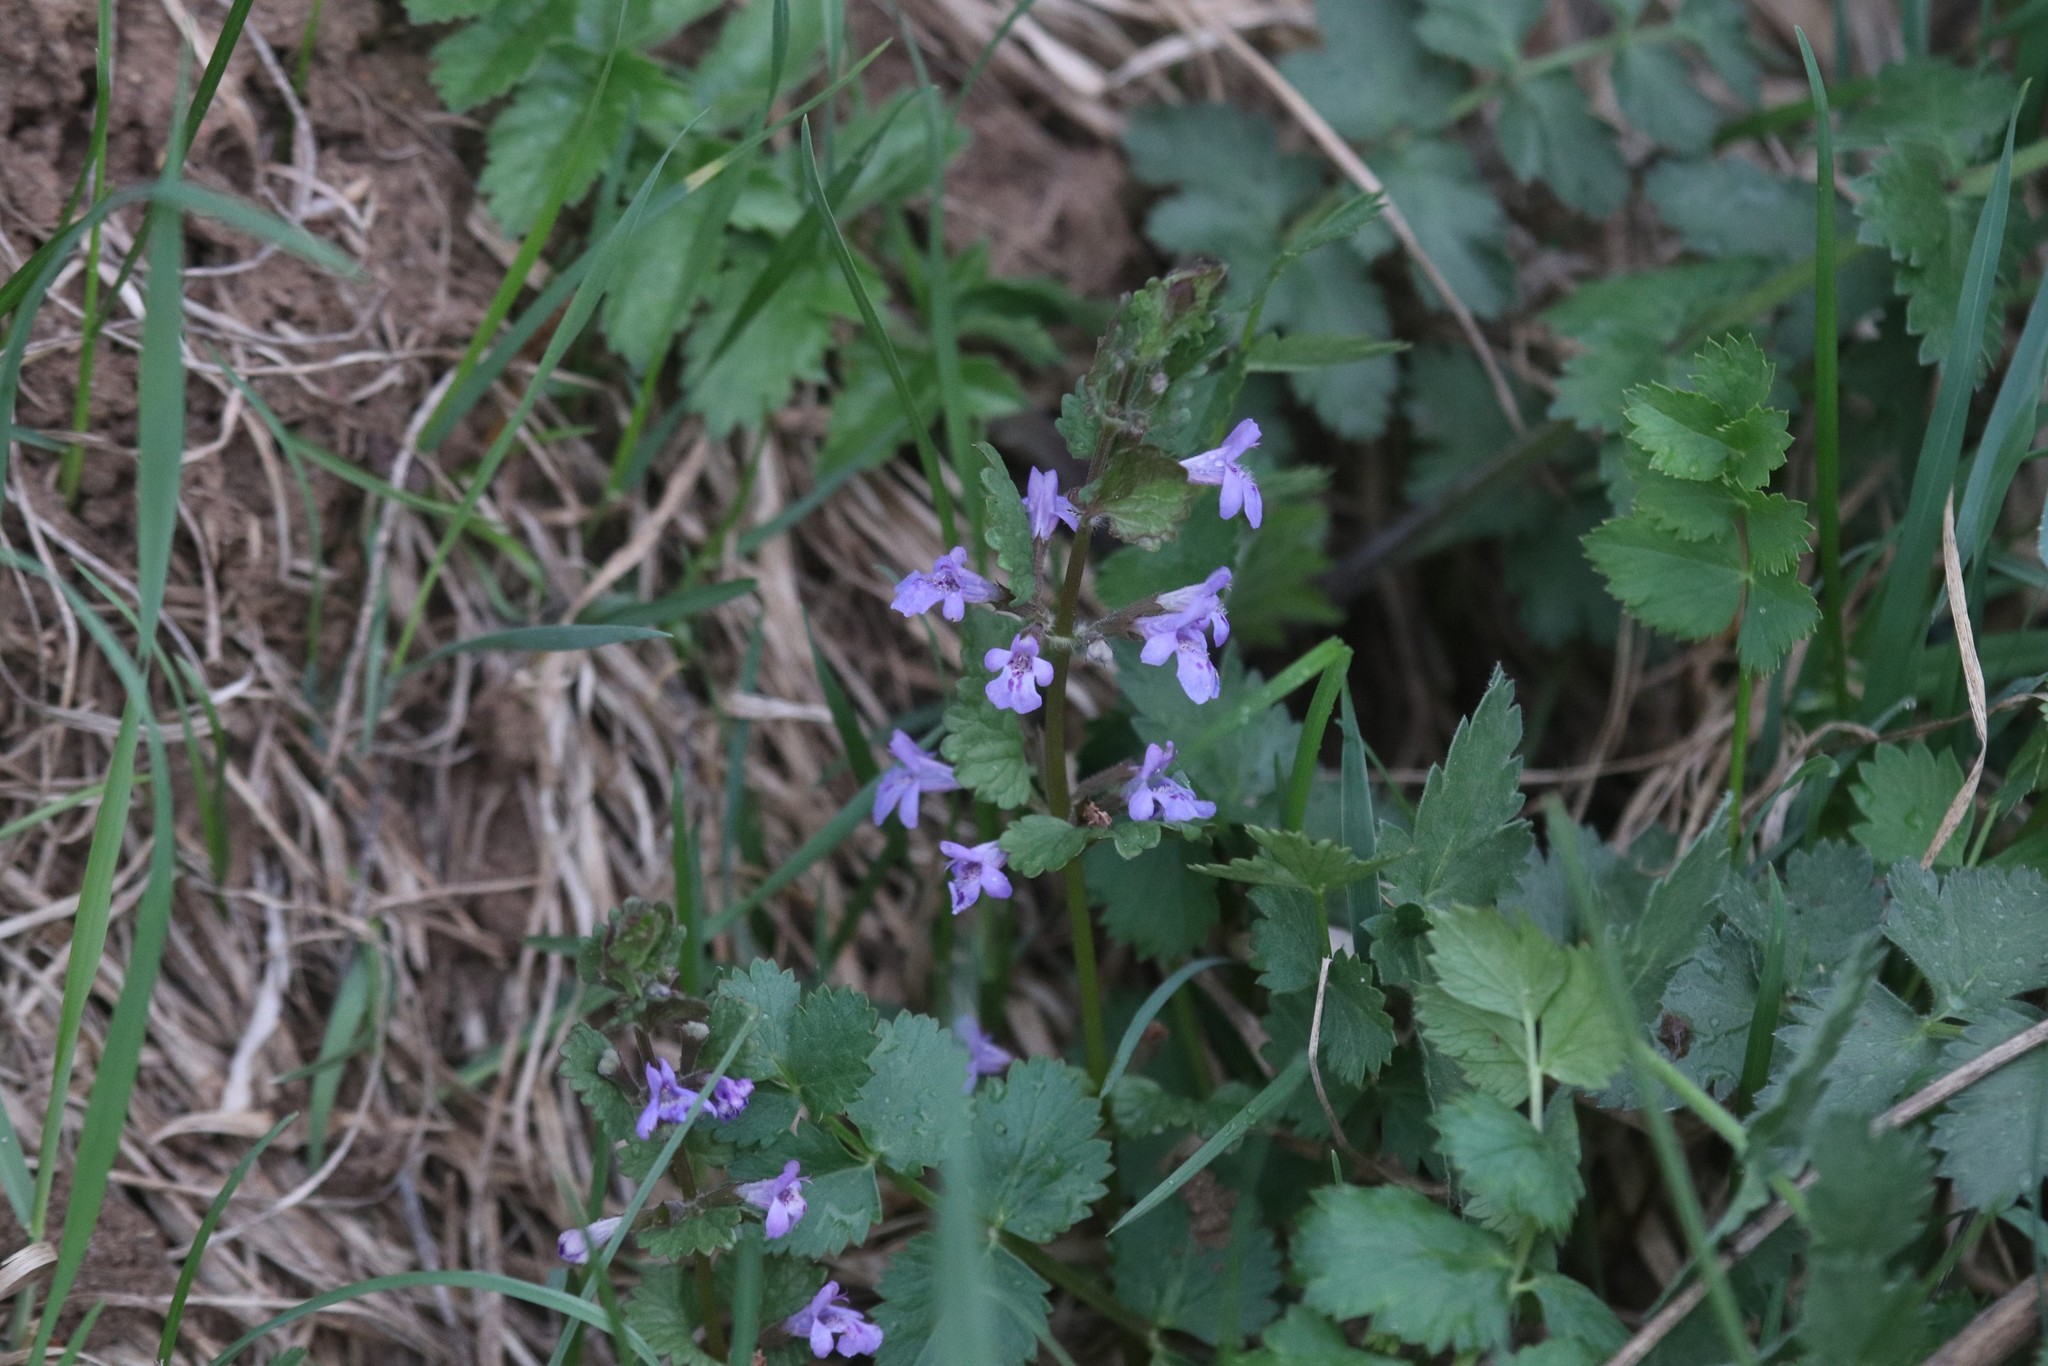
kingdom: Plantae
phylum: Tracheophyta
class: Magnoliopsida
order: Lamiales
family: Lamiaceae
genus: Glechoma
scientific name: Glechoma hederacea
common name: Ground ivy
